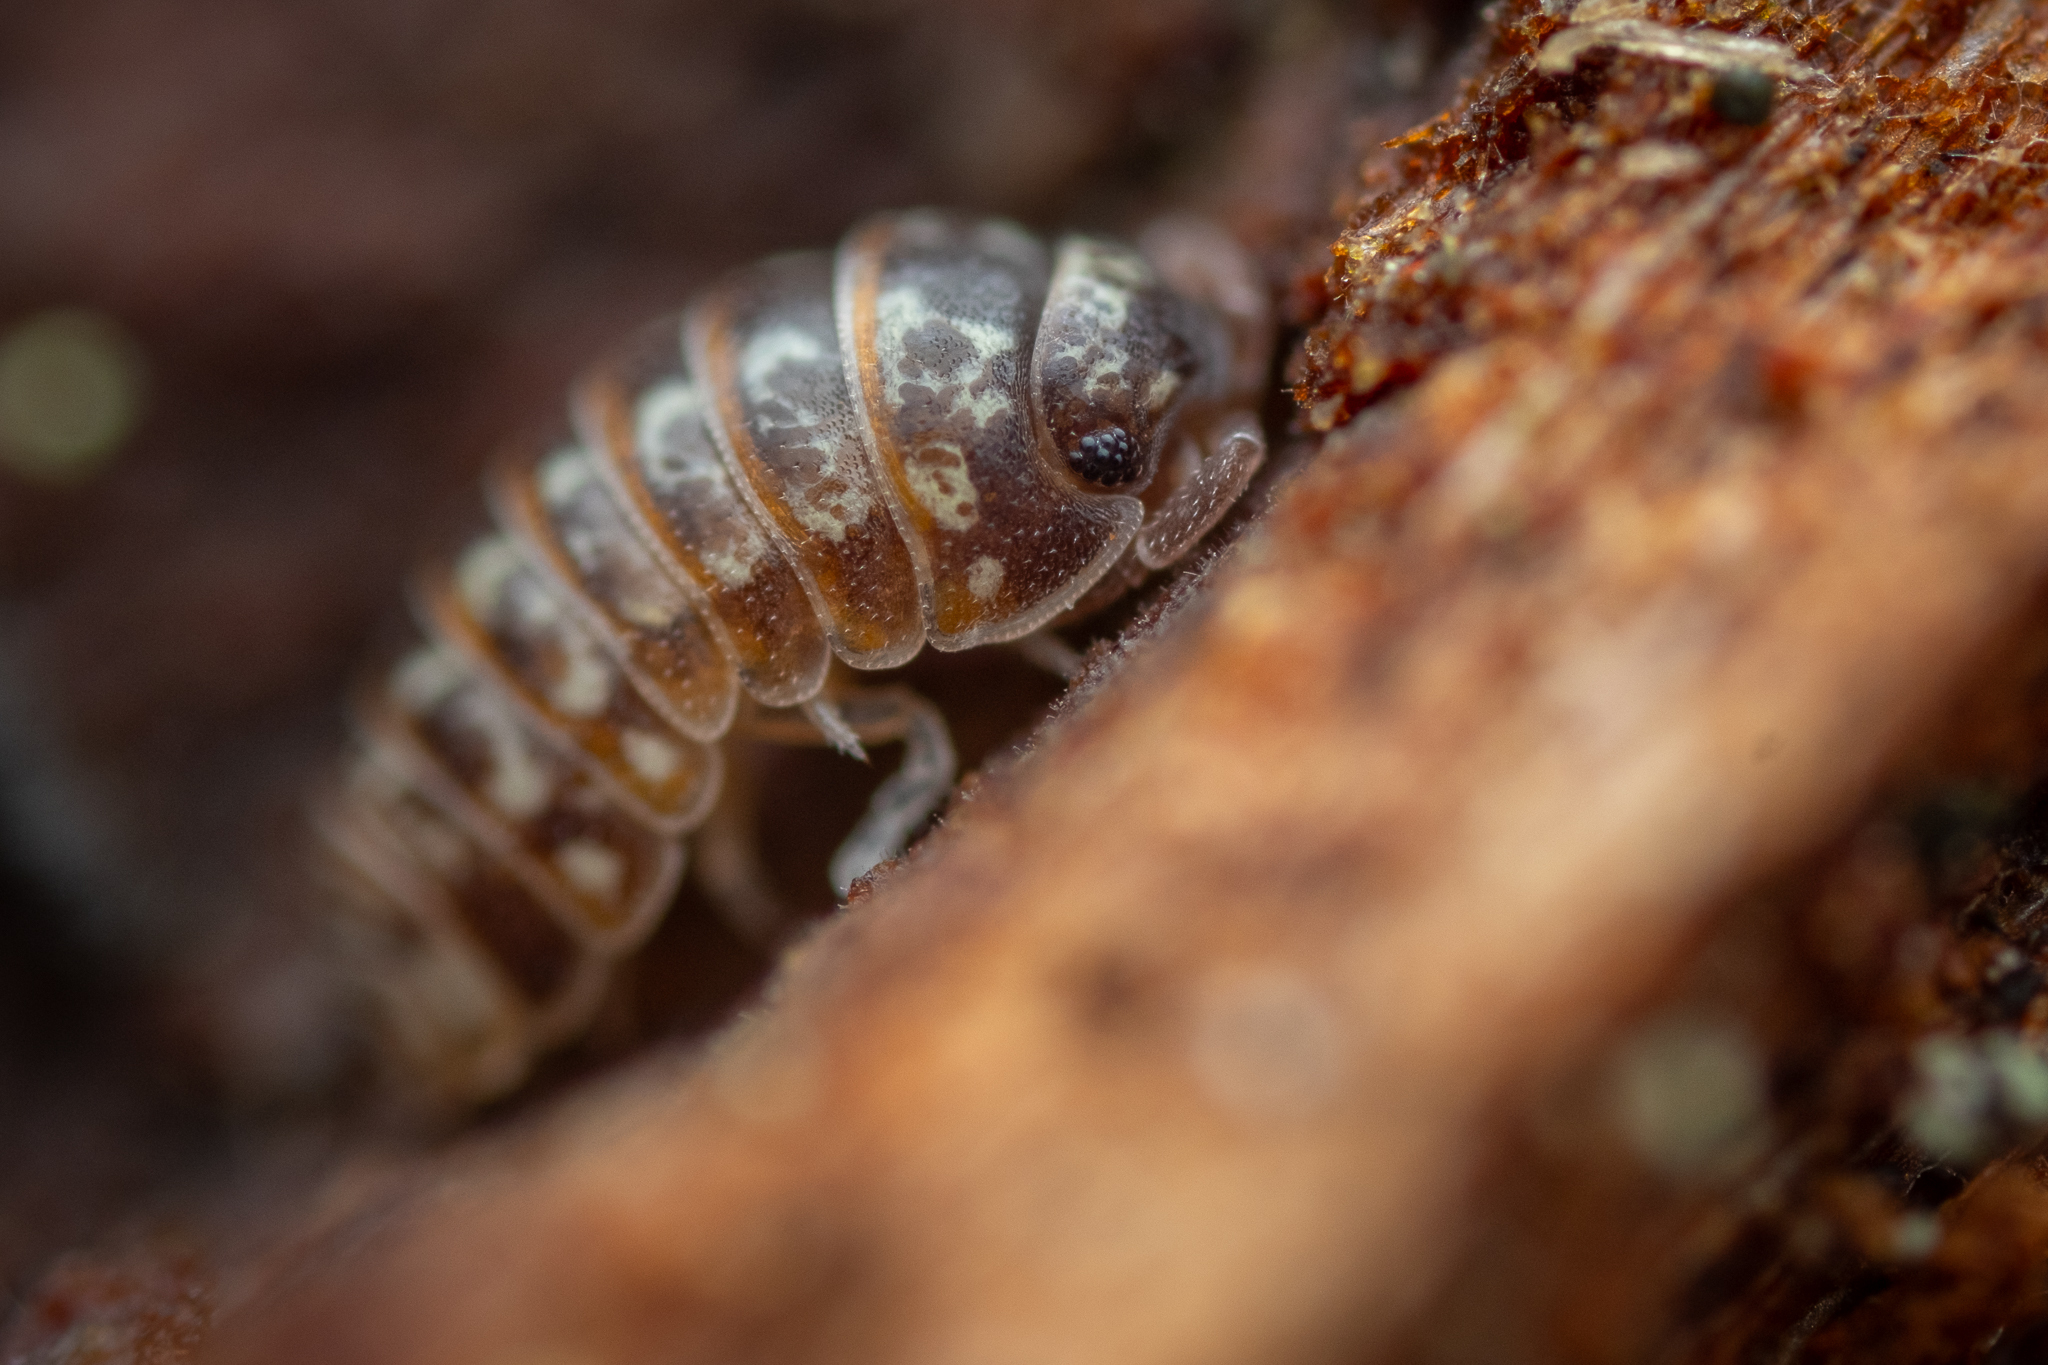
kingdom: Animalia
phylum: Arthropoda
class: Malacostraca
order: Isopoda
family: Armadillidiidae
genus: Armadillidium
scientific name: Armadillidium pulchellum
